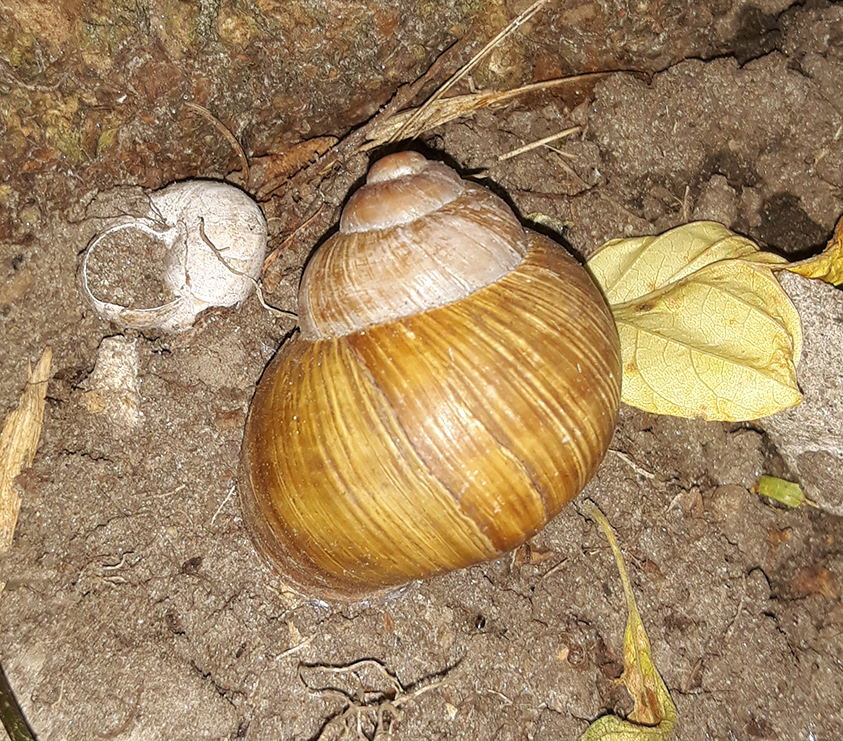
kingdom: Animalia
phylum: Mollusca
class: Gastropoda
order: Stylommatophora
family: Helicidae
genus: Helix
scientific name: Helix pomatia
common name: Roman snail
